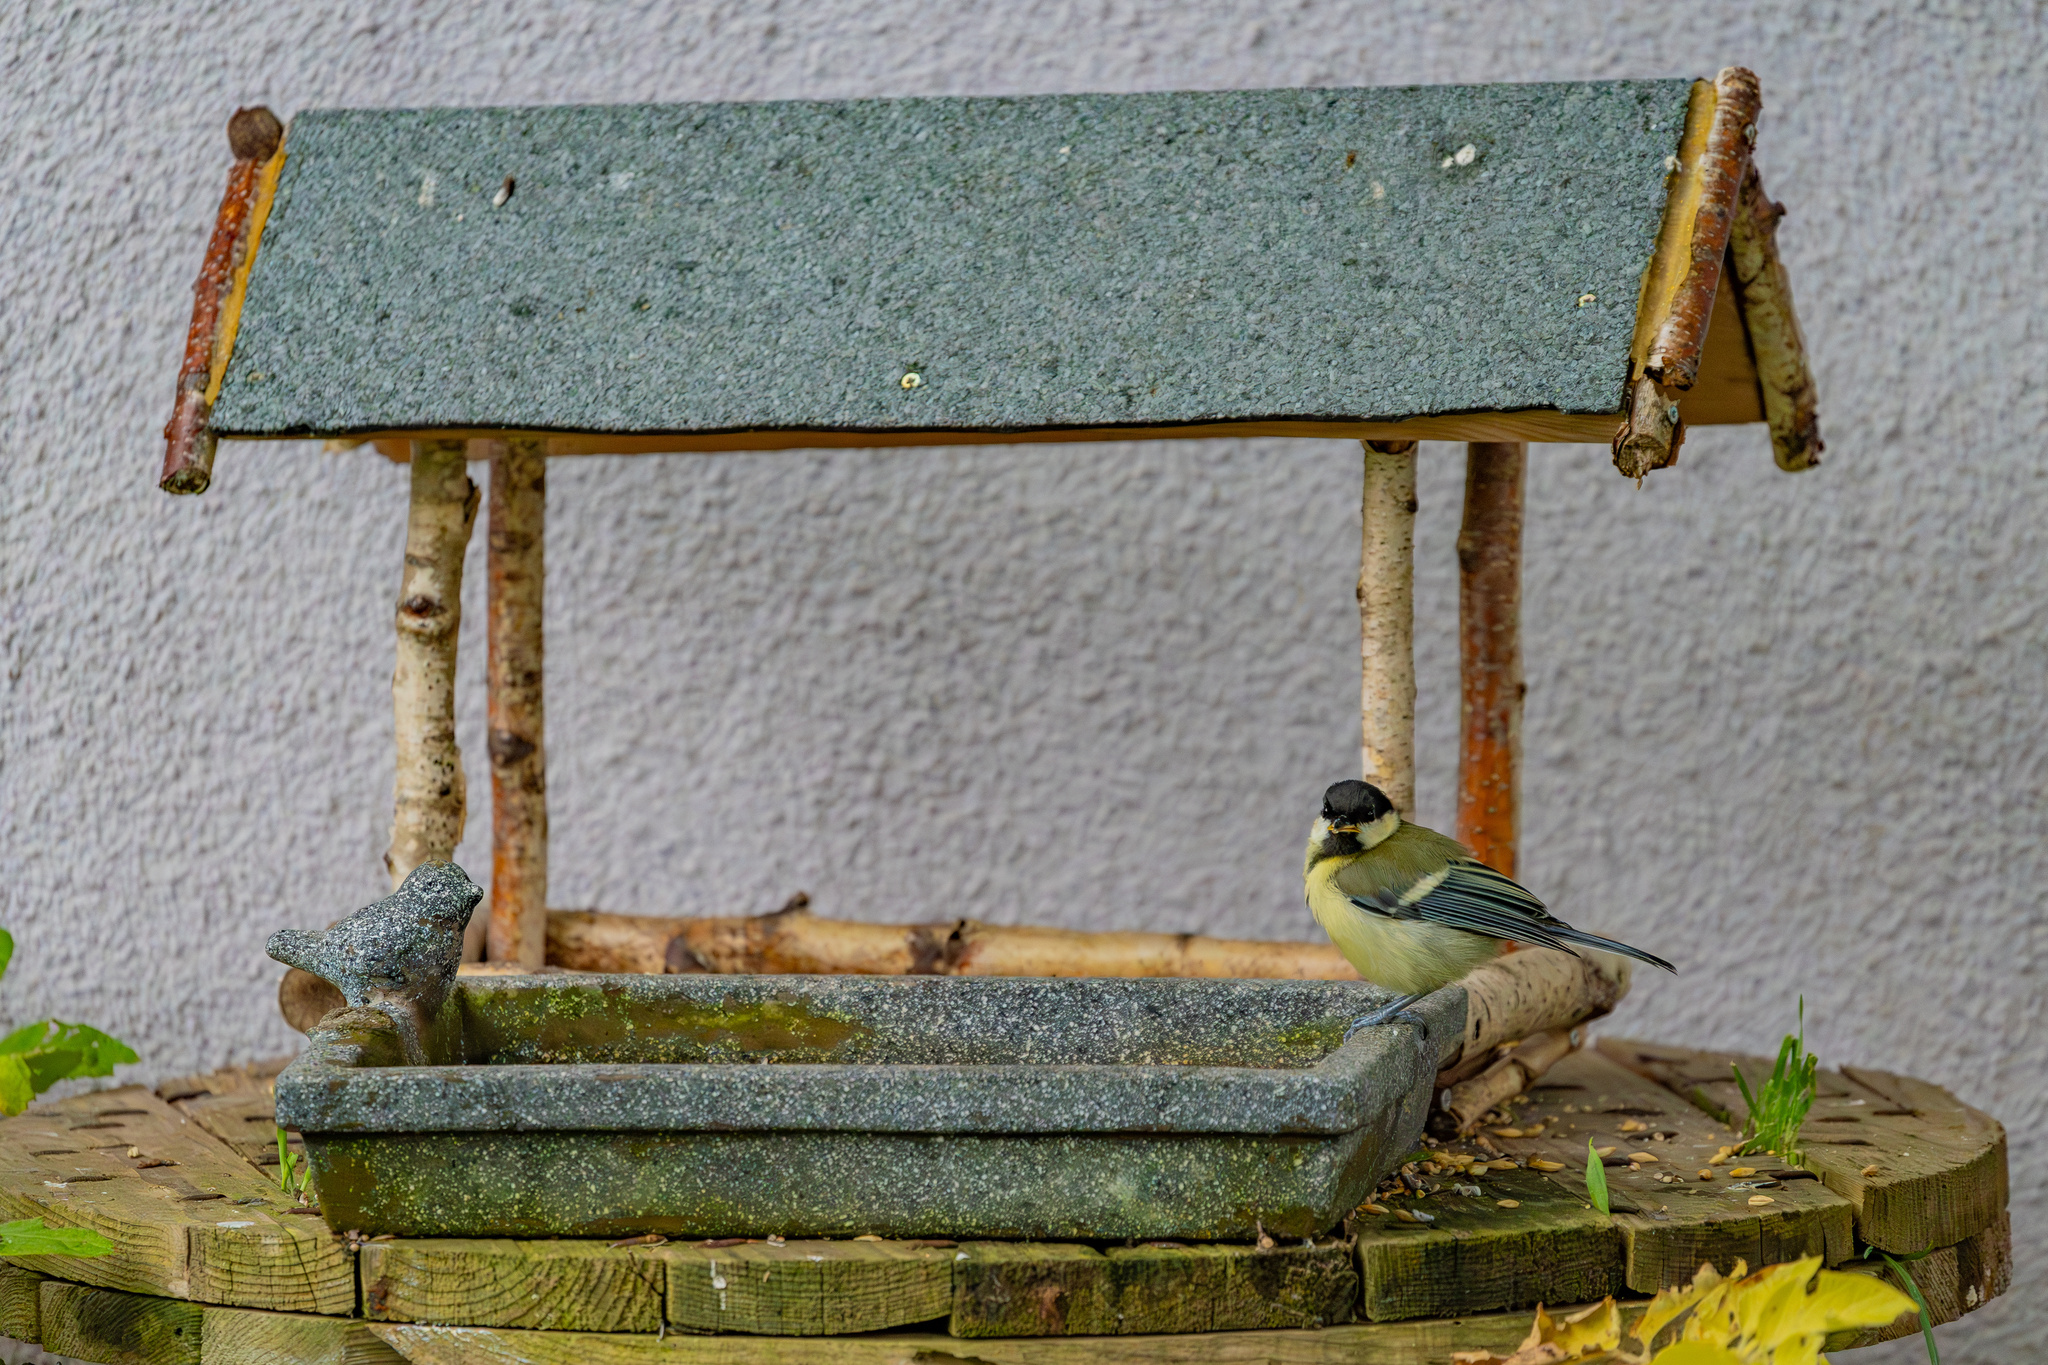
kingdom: Animalia
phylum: Chordata
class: Aves
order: Passeriformes
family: Paridae
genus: Parus
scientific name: Parus major
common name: Great tit
